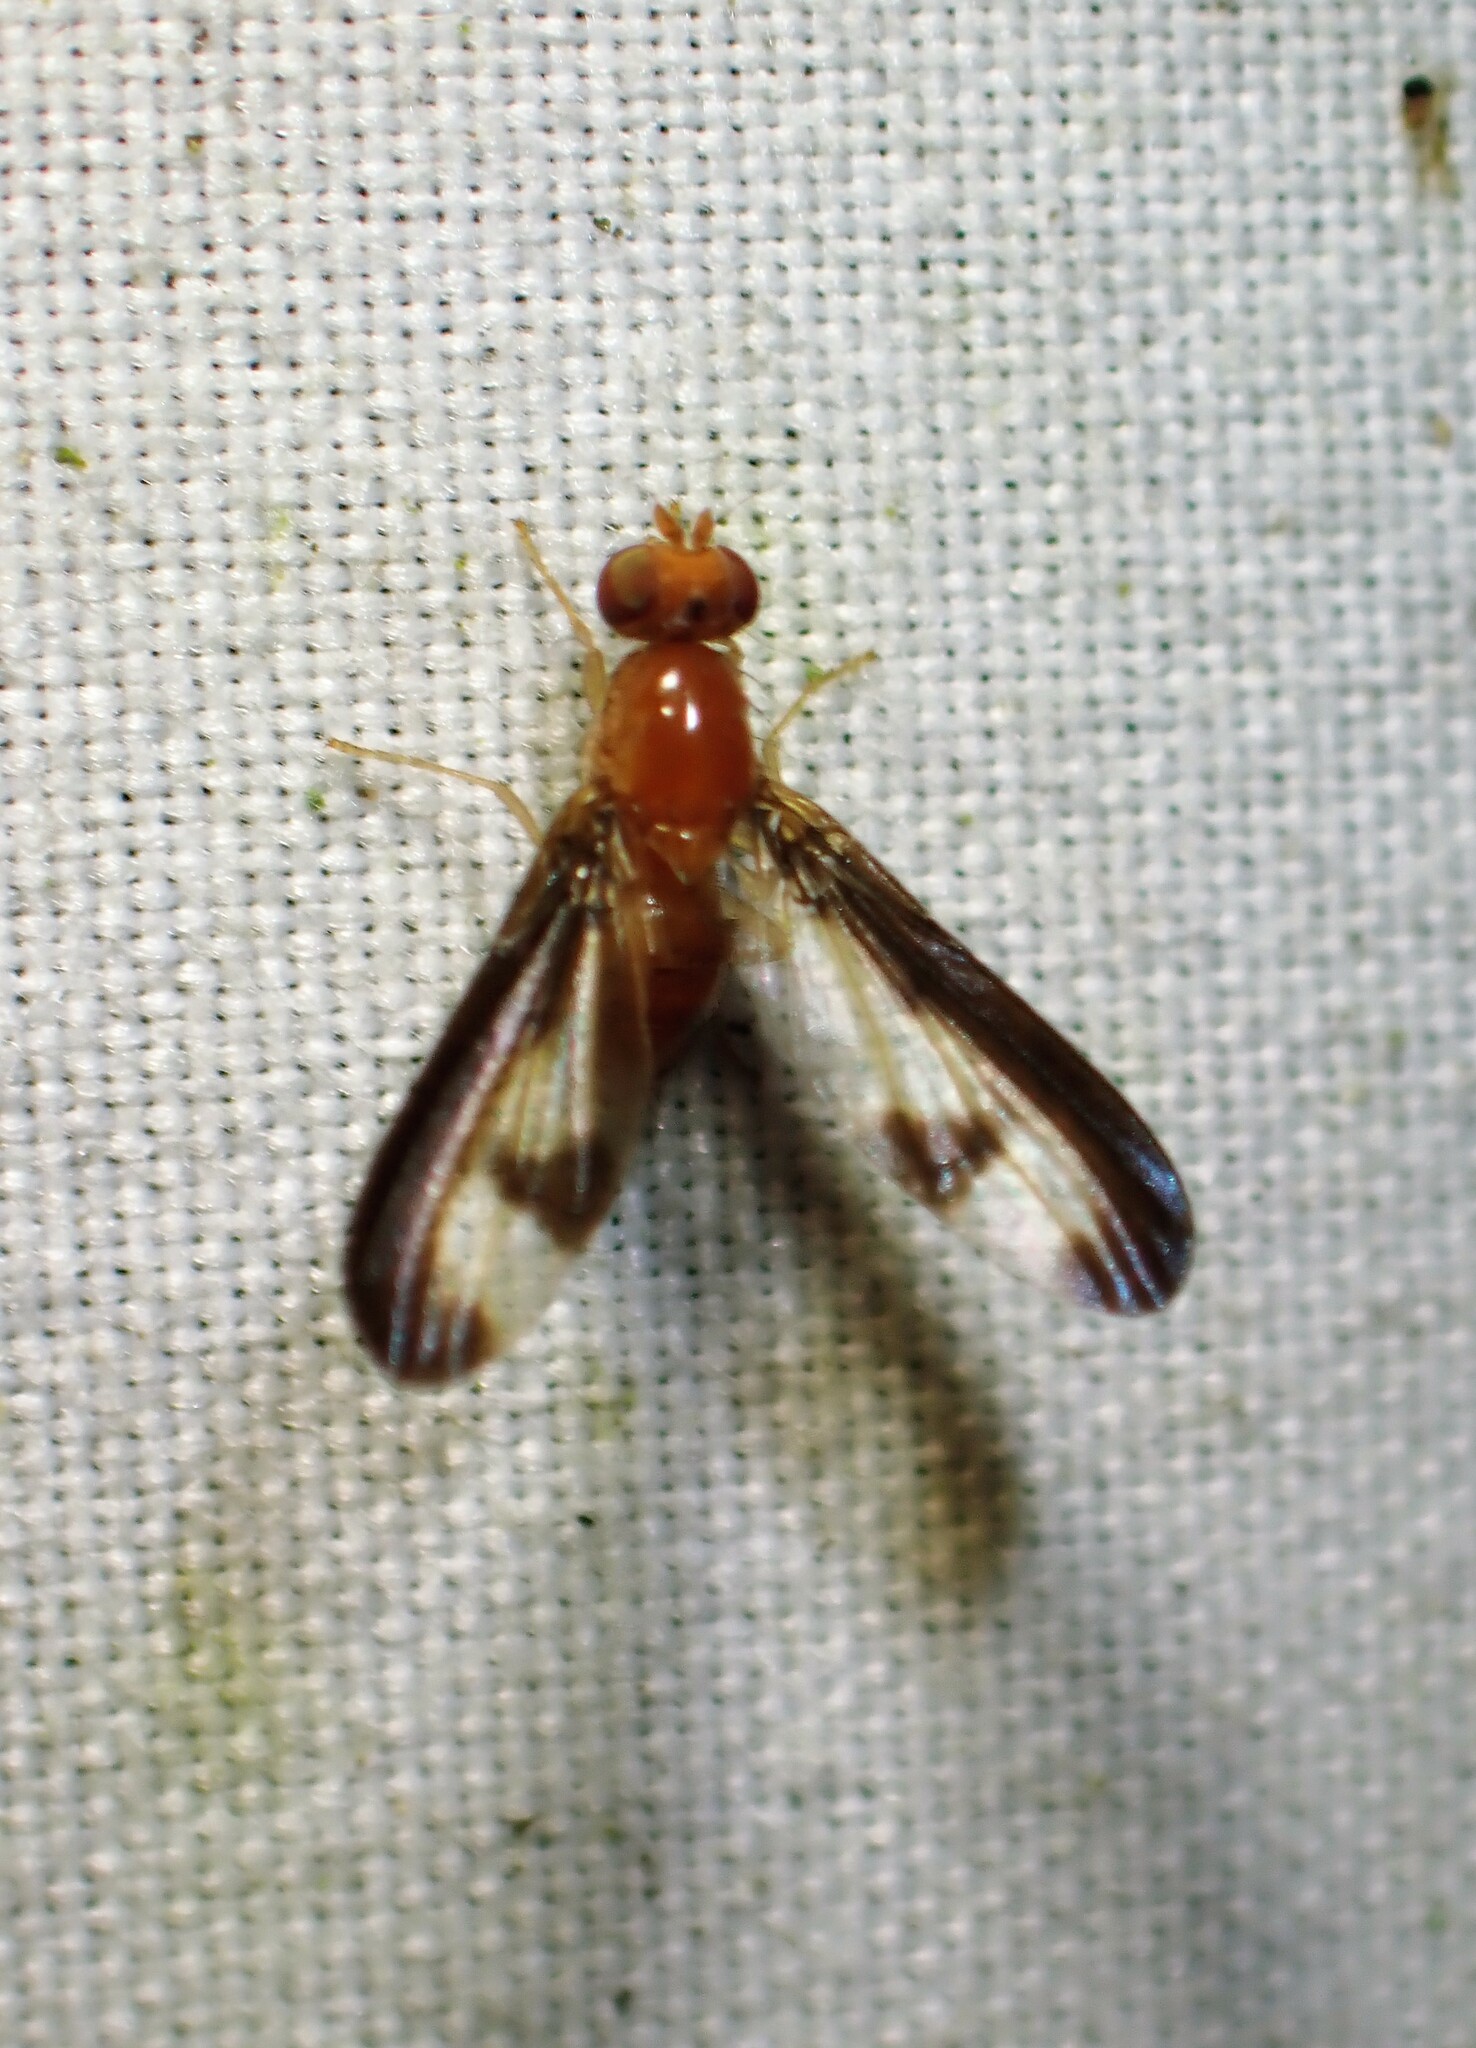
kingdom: Animalia
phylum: Arthropoda
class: Insecta
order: Diptera
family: Pallopteridae
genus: Toxonevra
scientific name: Toxonevra superba
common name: Antlered flutter fly
